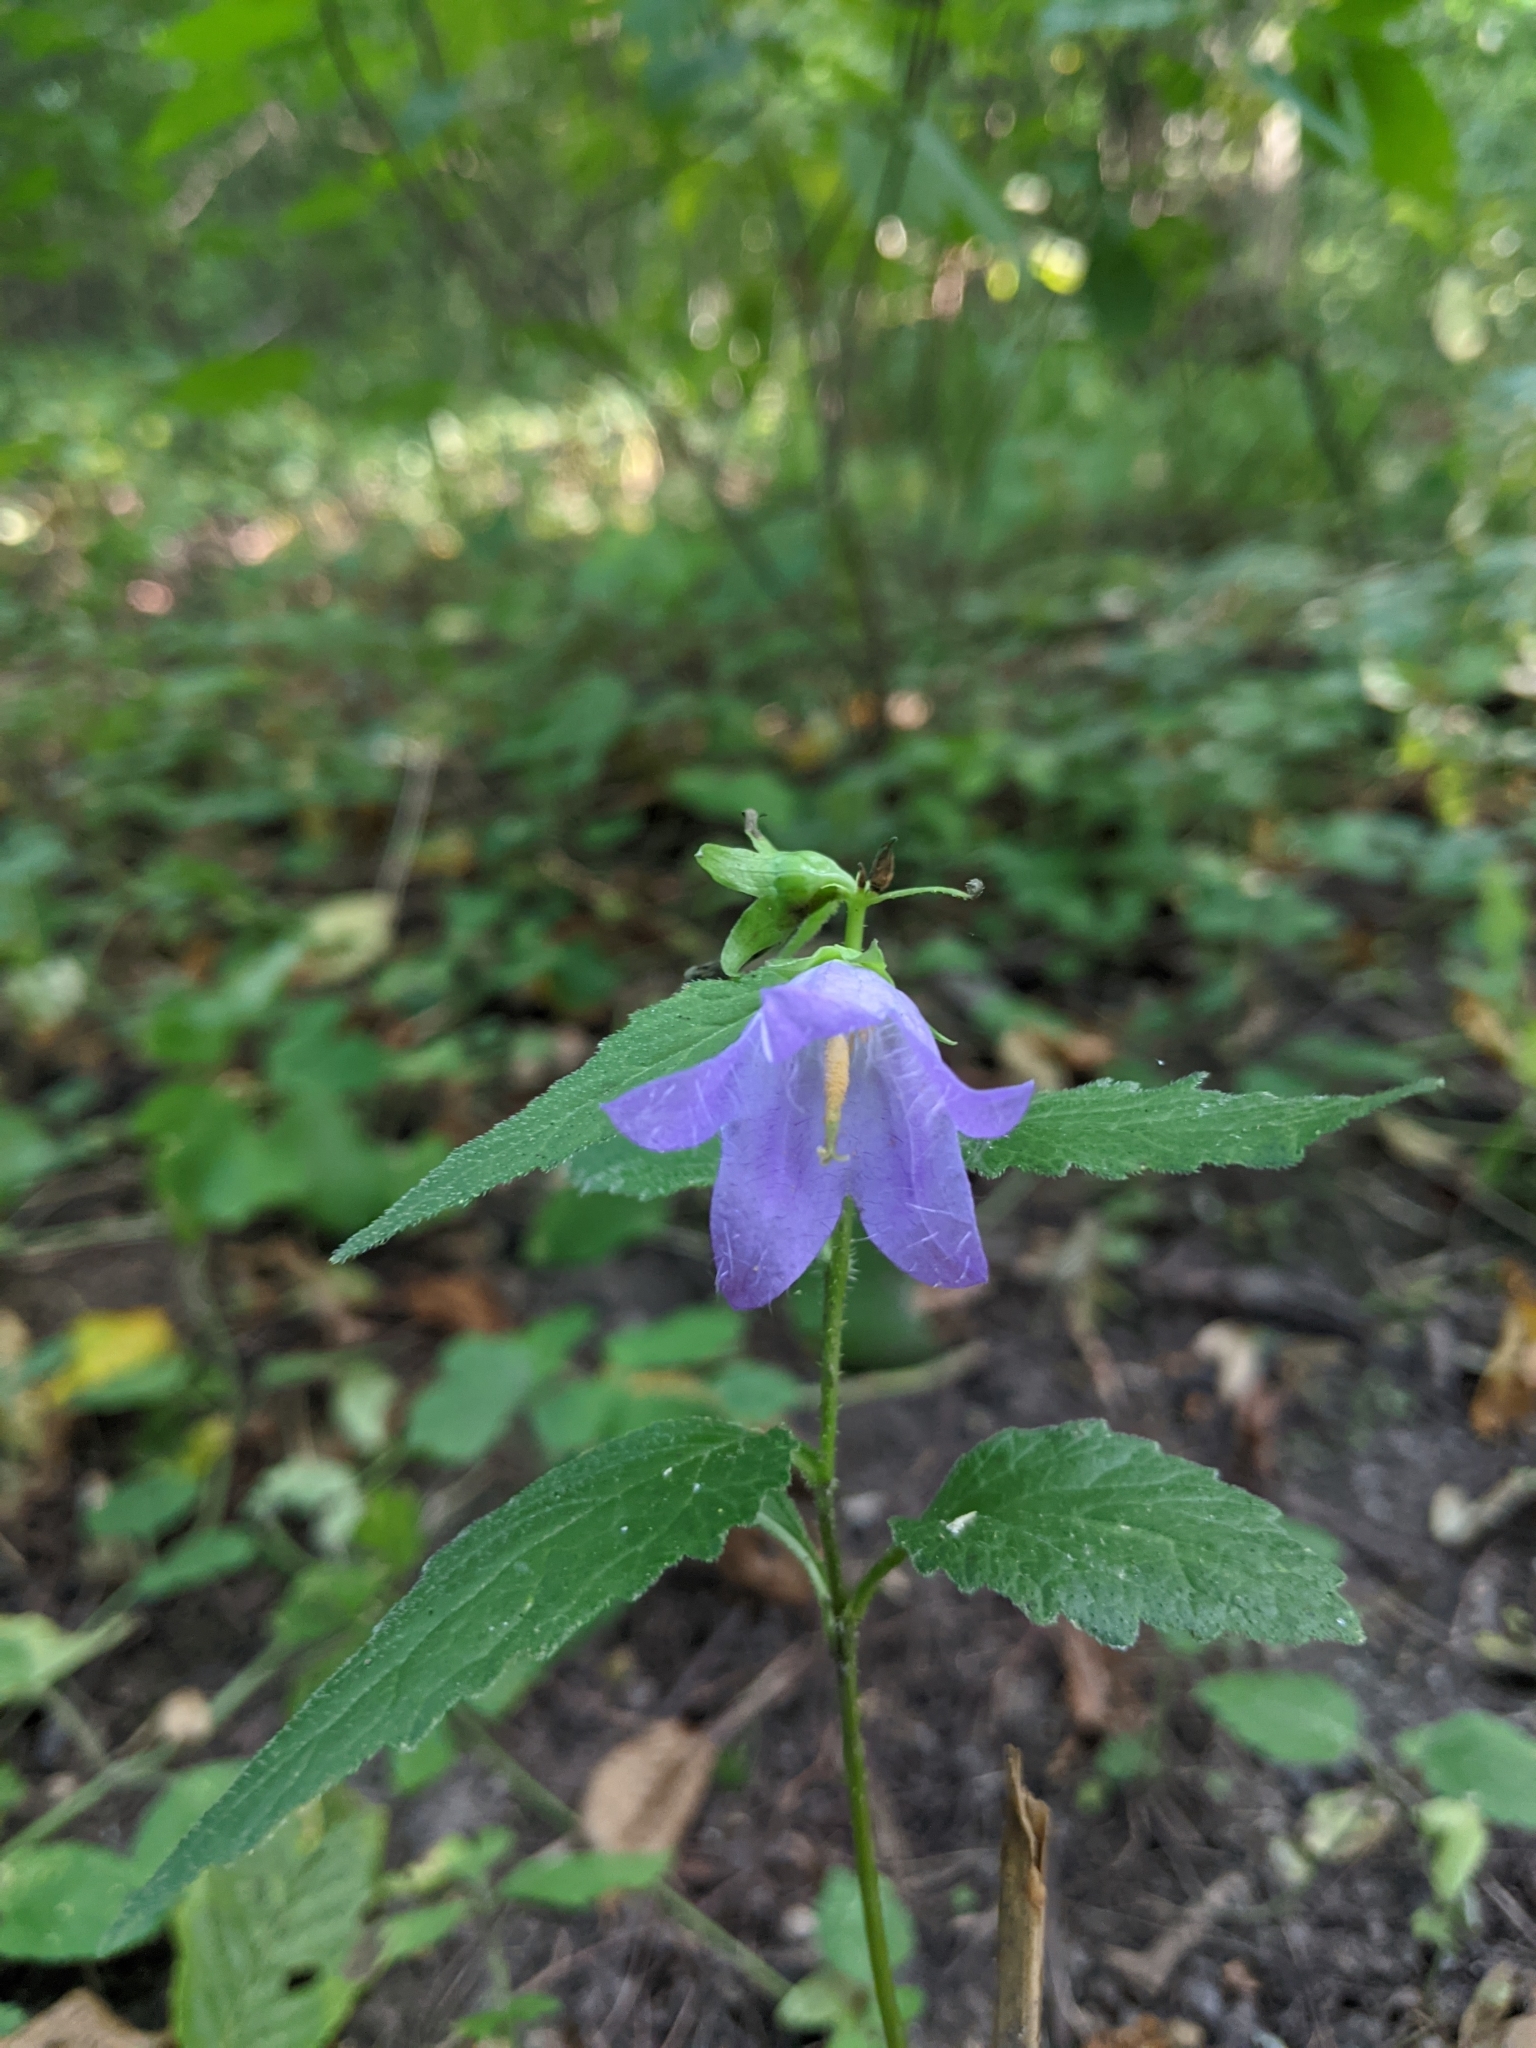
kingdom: Plantae
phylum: Tracheophyta
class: Magnoliopsida
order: Asterales
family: Campanulaceae
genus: Campanula
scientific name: Campanula trachelium
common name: Nettle-leaved bellflower
